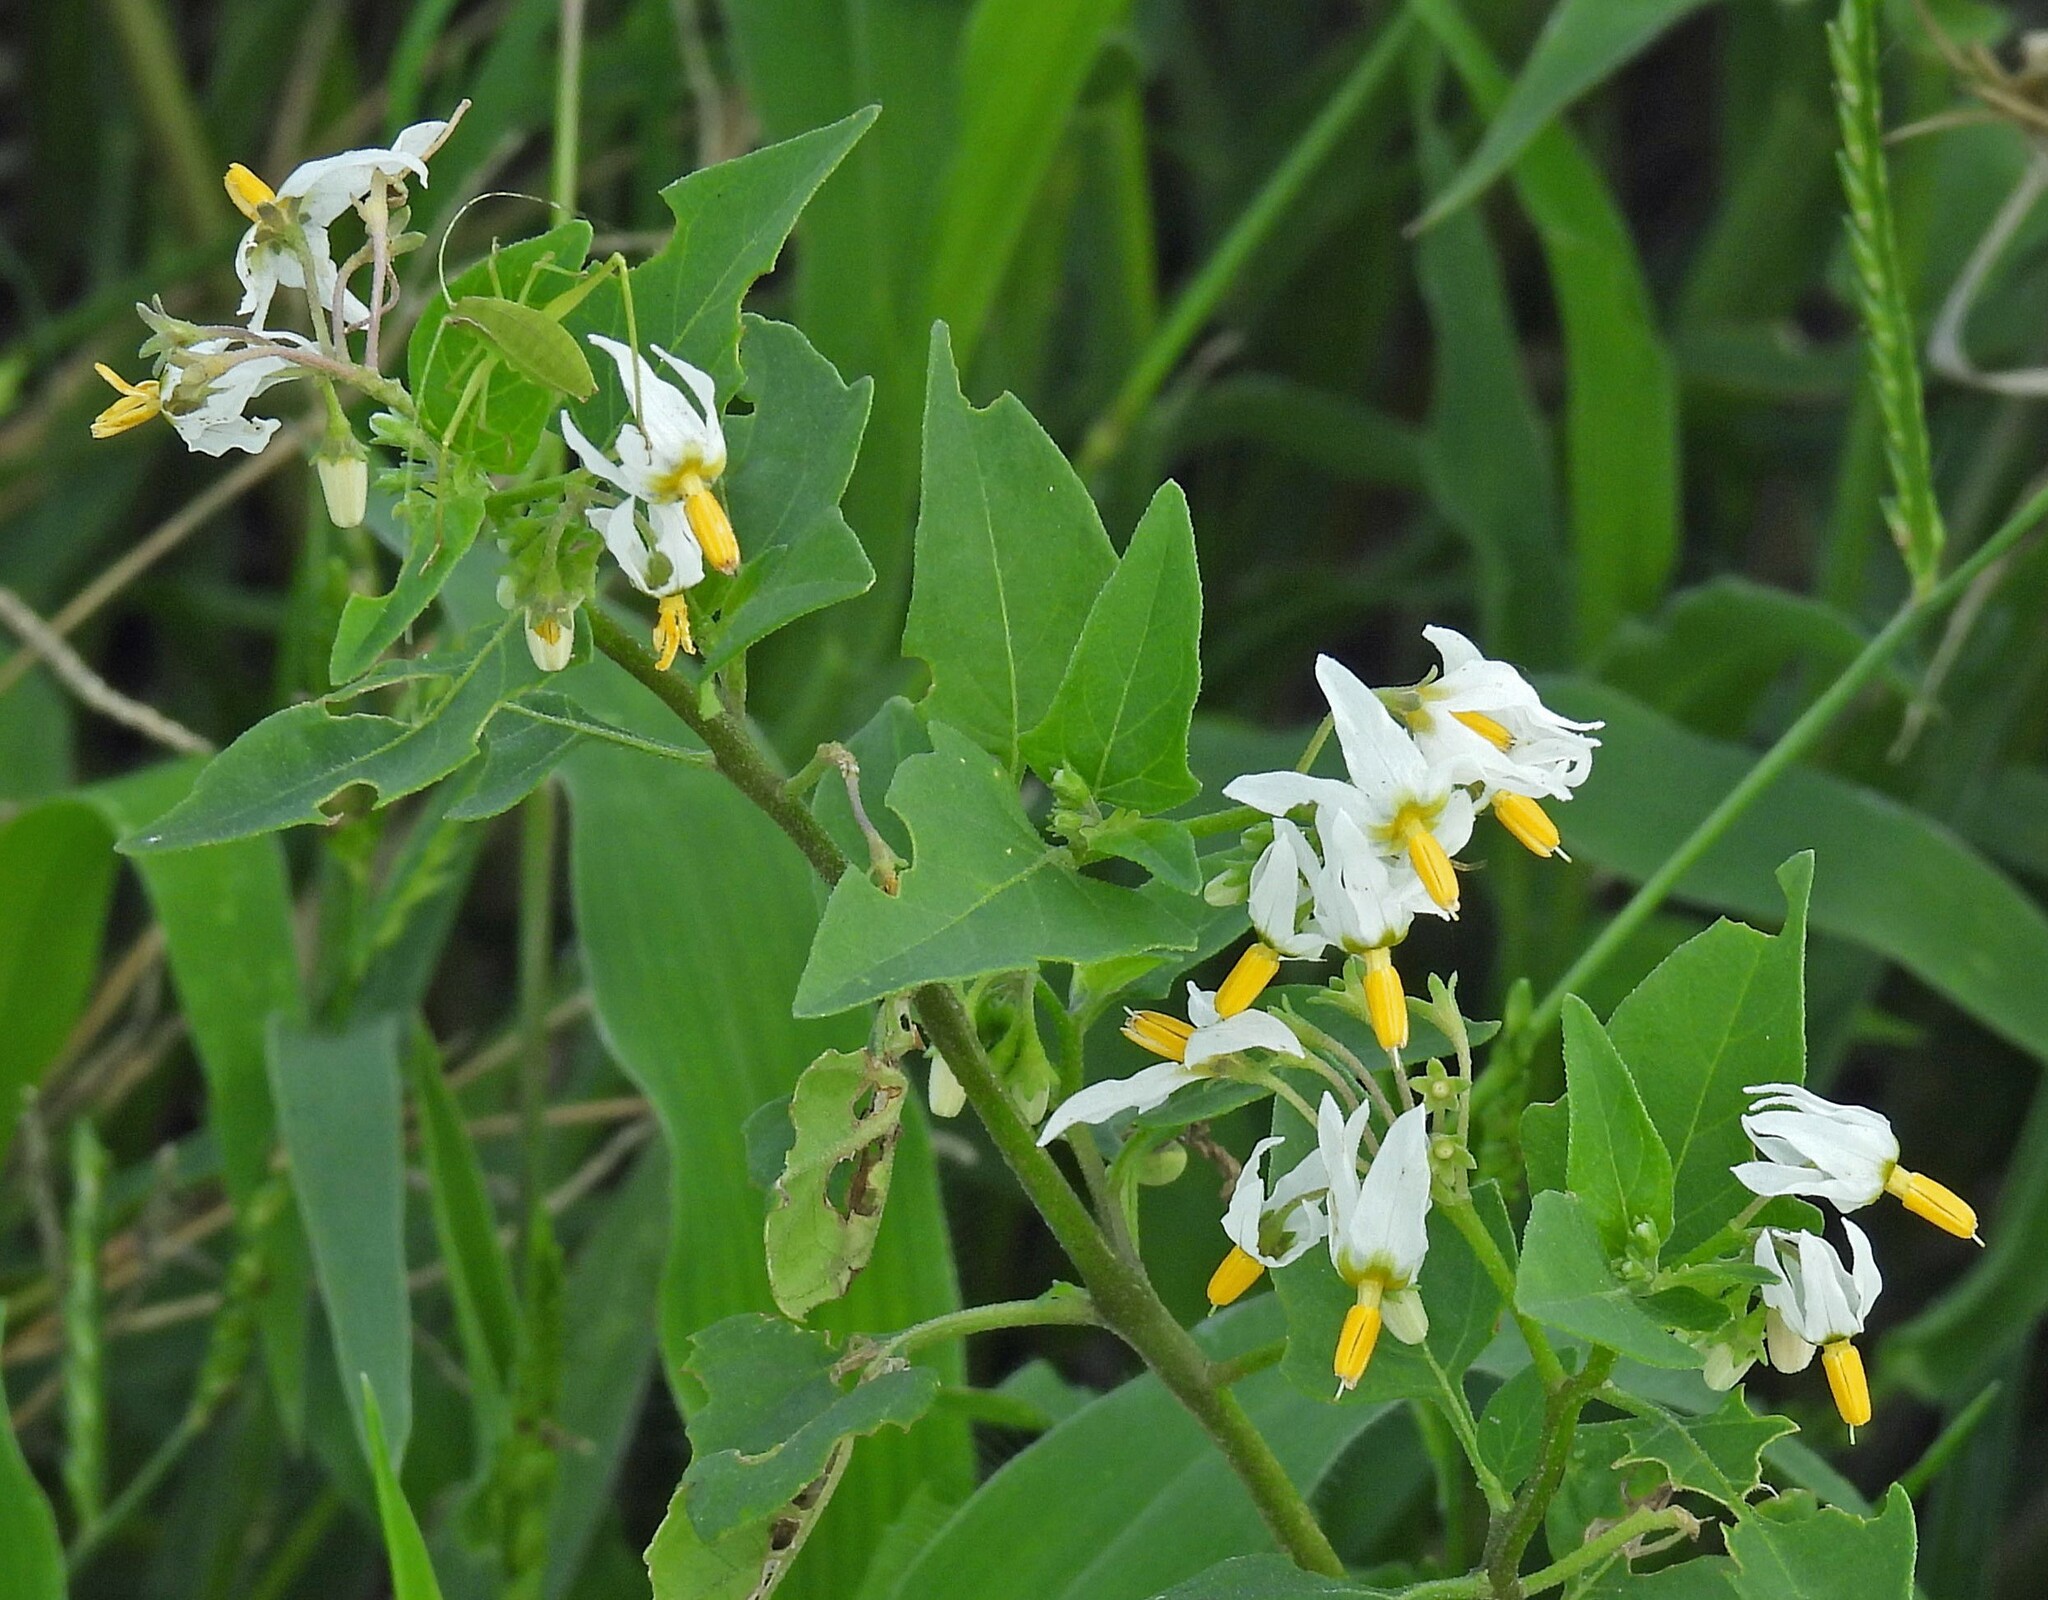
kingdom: Plantae
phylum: Tracheophyta
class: Magnoliopsida
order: Solanales
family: Solanaceae
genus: Solanum
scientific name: Solanum pilcomayense
